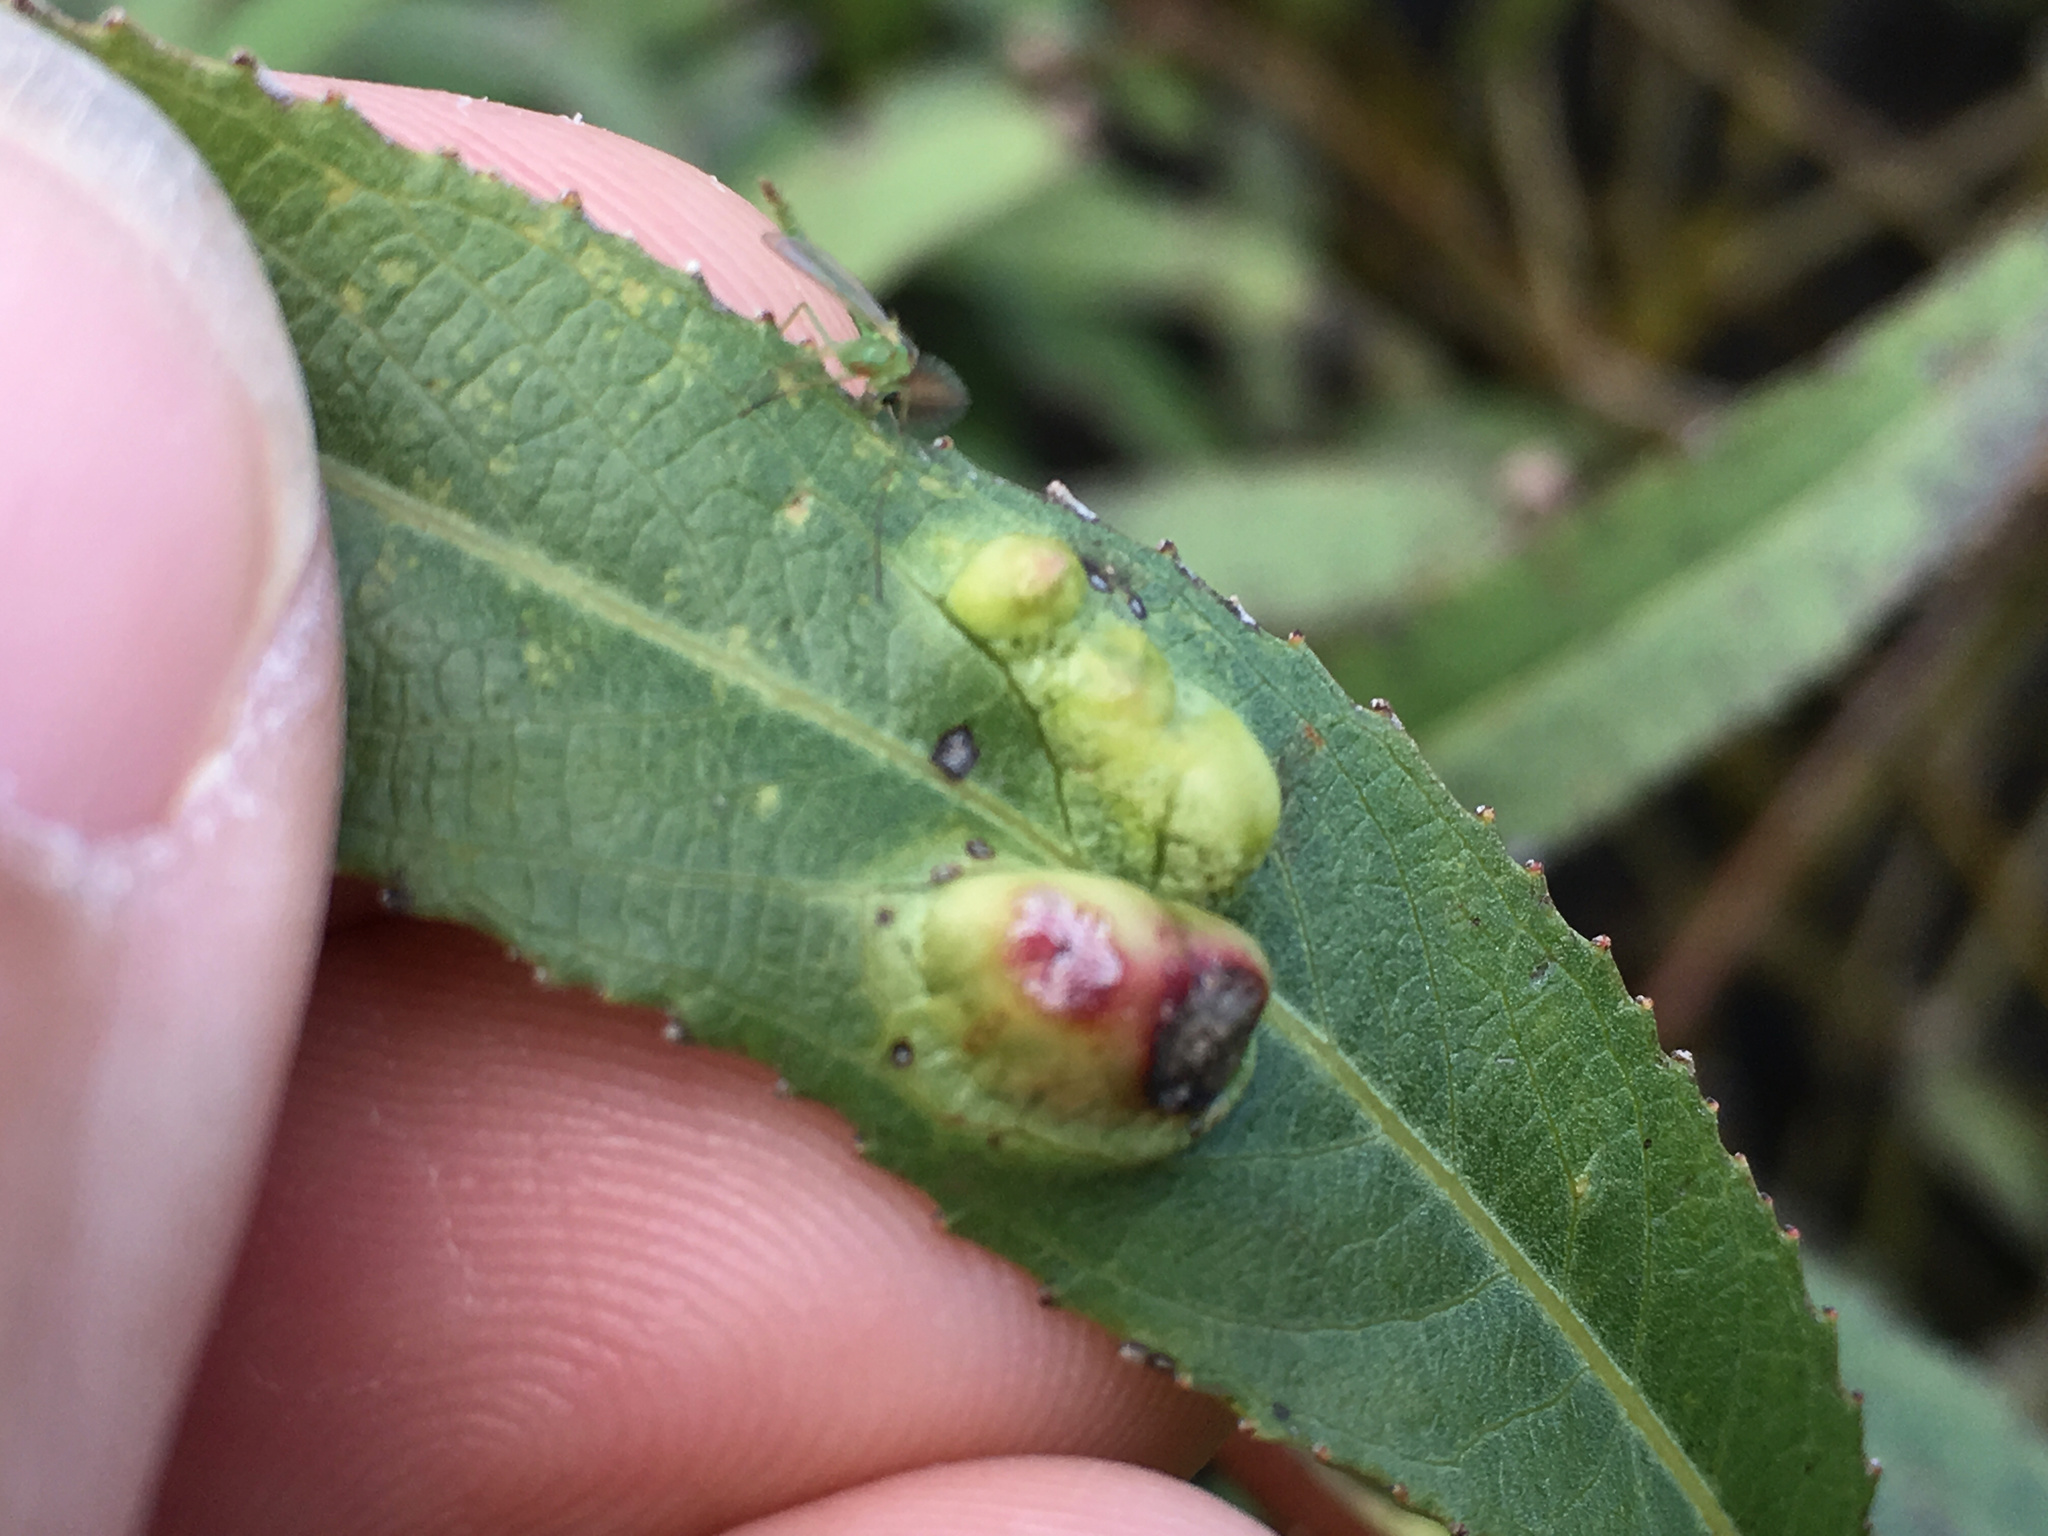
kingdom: Animalia
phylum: Arthropoda
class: Insecta
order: Hymenoptera
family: Tenthredinidae
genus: Pontania
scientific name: Pontania proxima
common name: Common sawfly
